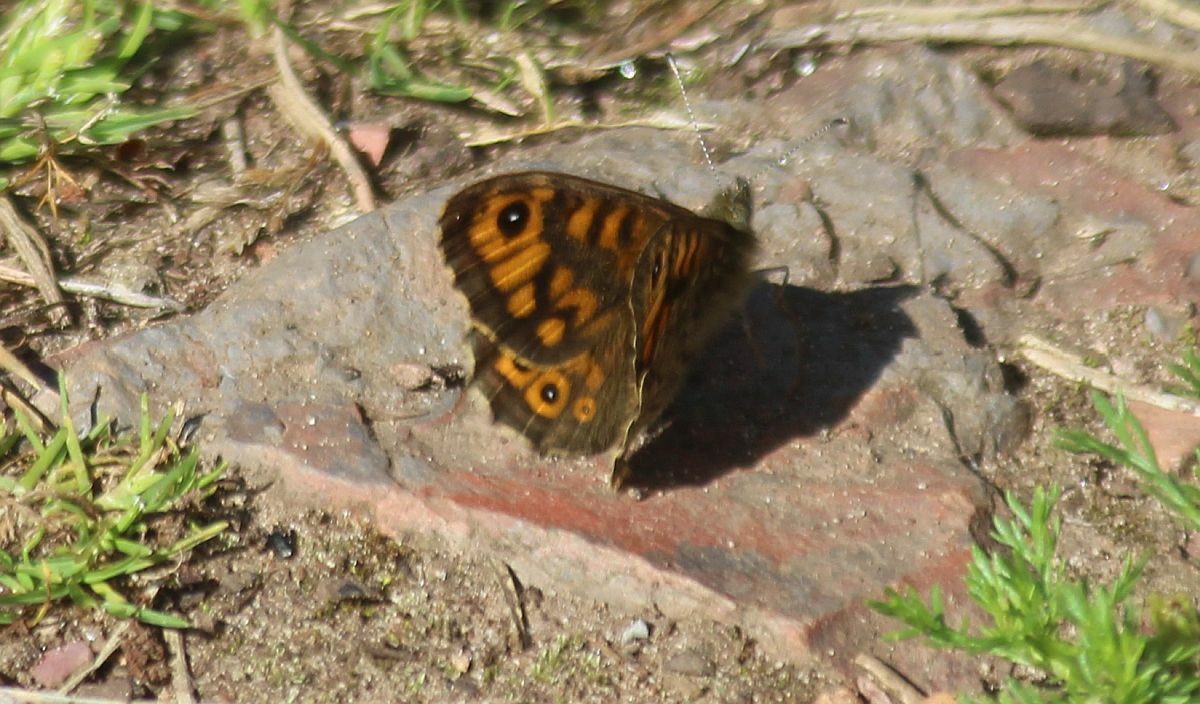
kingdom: Animalia
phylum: Arthropoda
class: Insecta
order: Lepidoptera
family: Nymphalidae
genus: Pararge
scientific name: Pararge Lasiommata megera
